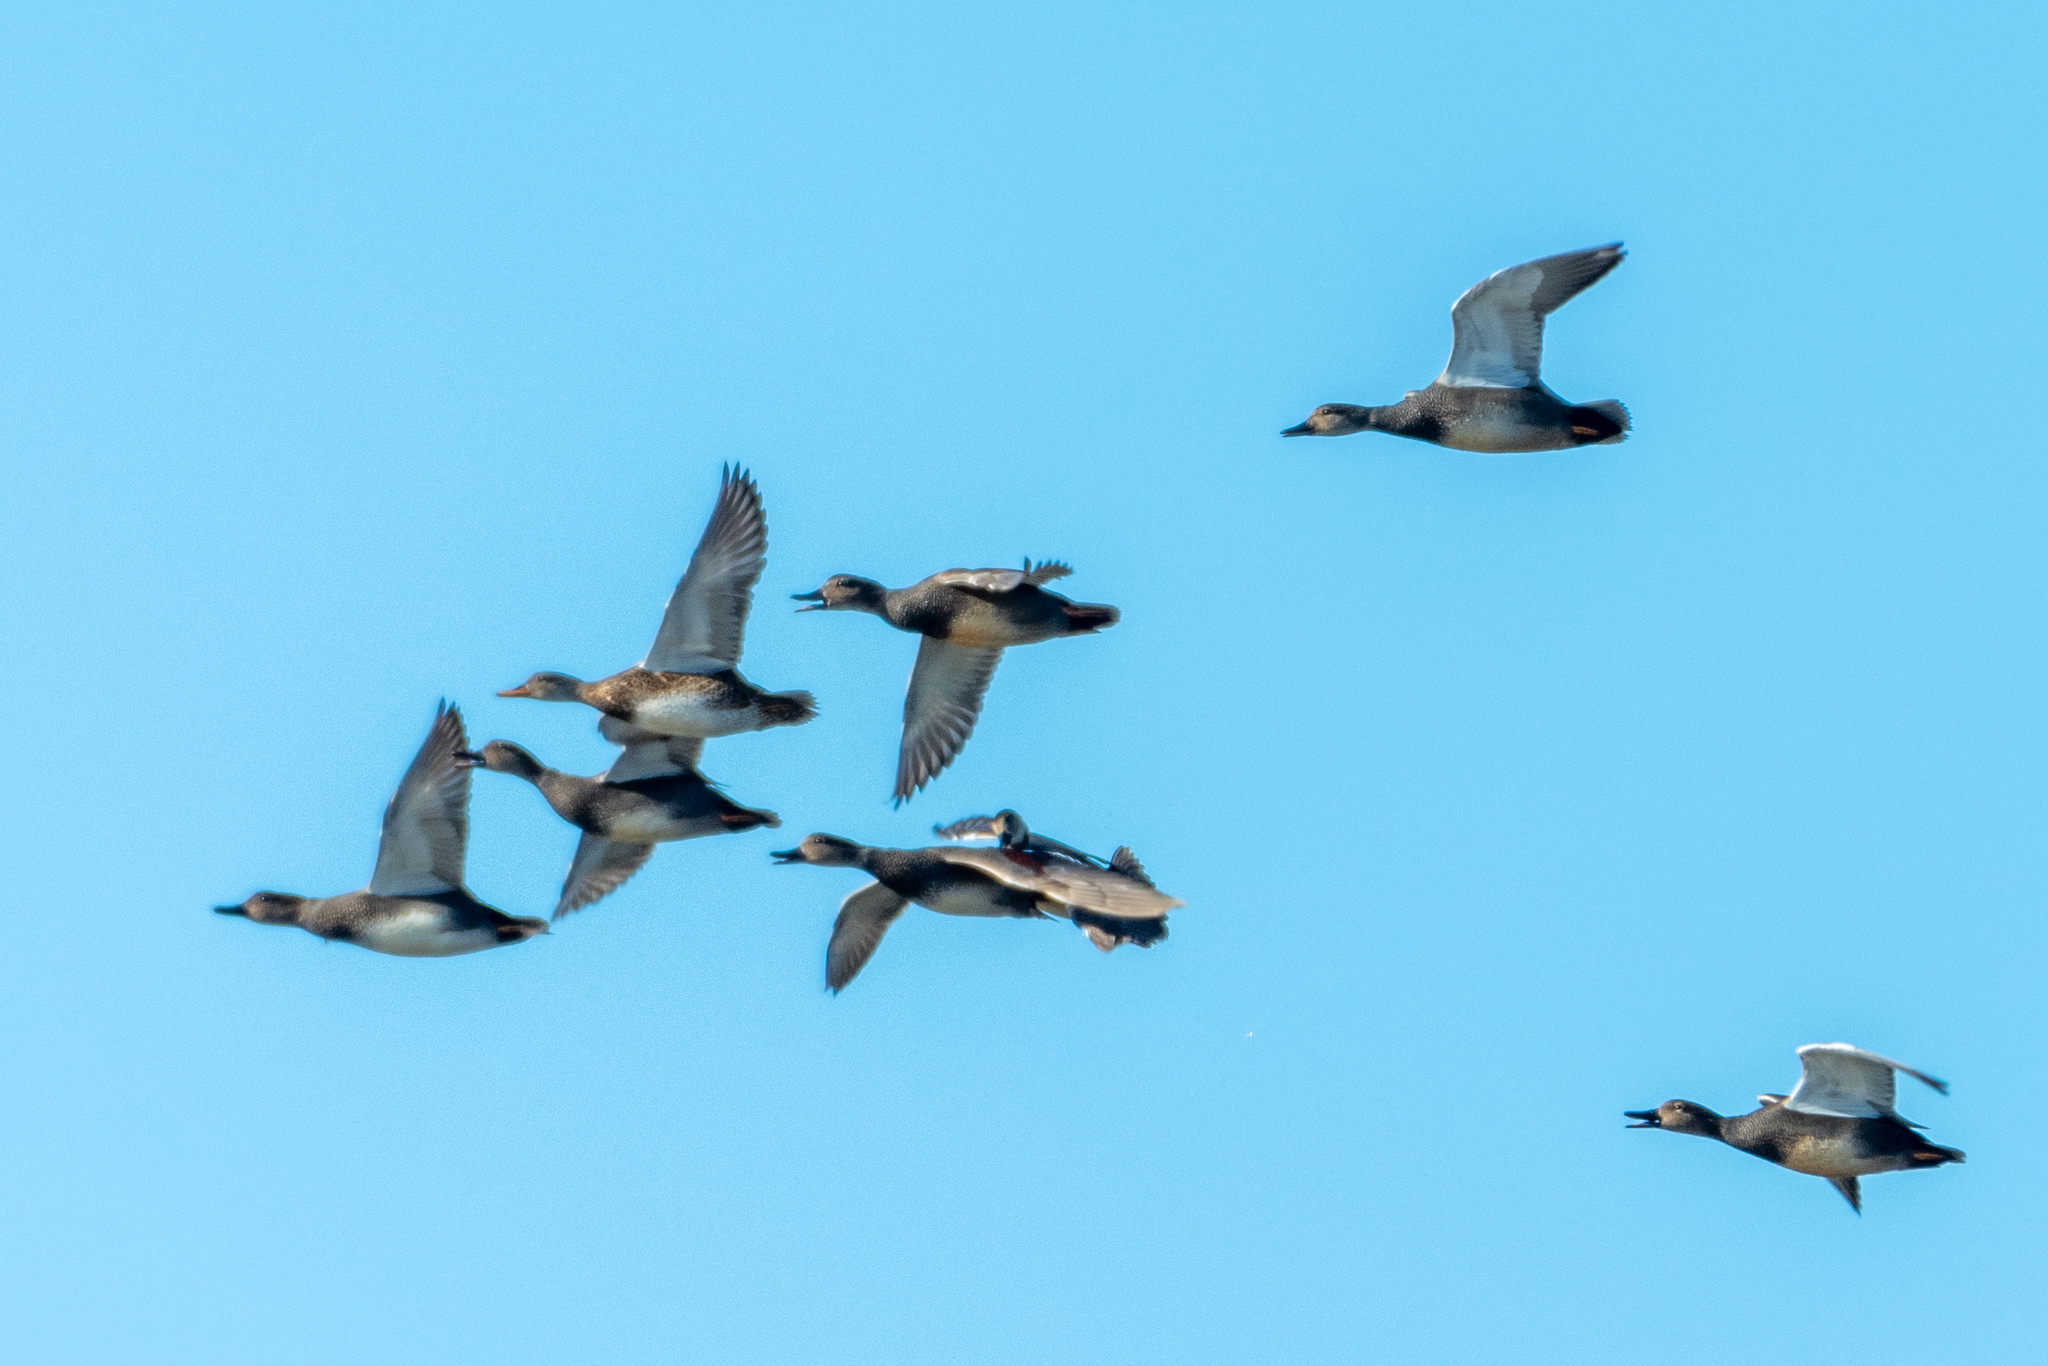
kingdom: Animalia
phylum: Chordata
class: Aves
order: Anseriformes
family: Anatidae
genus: Mareca
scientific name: Mareca strepera
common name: Gadwall
